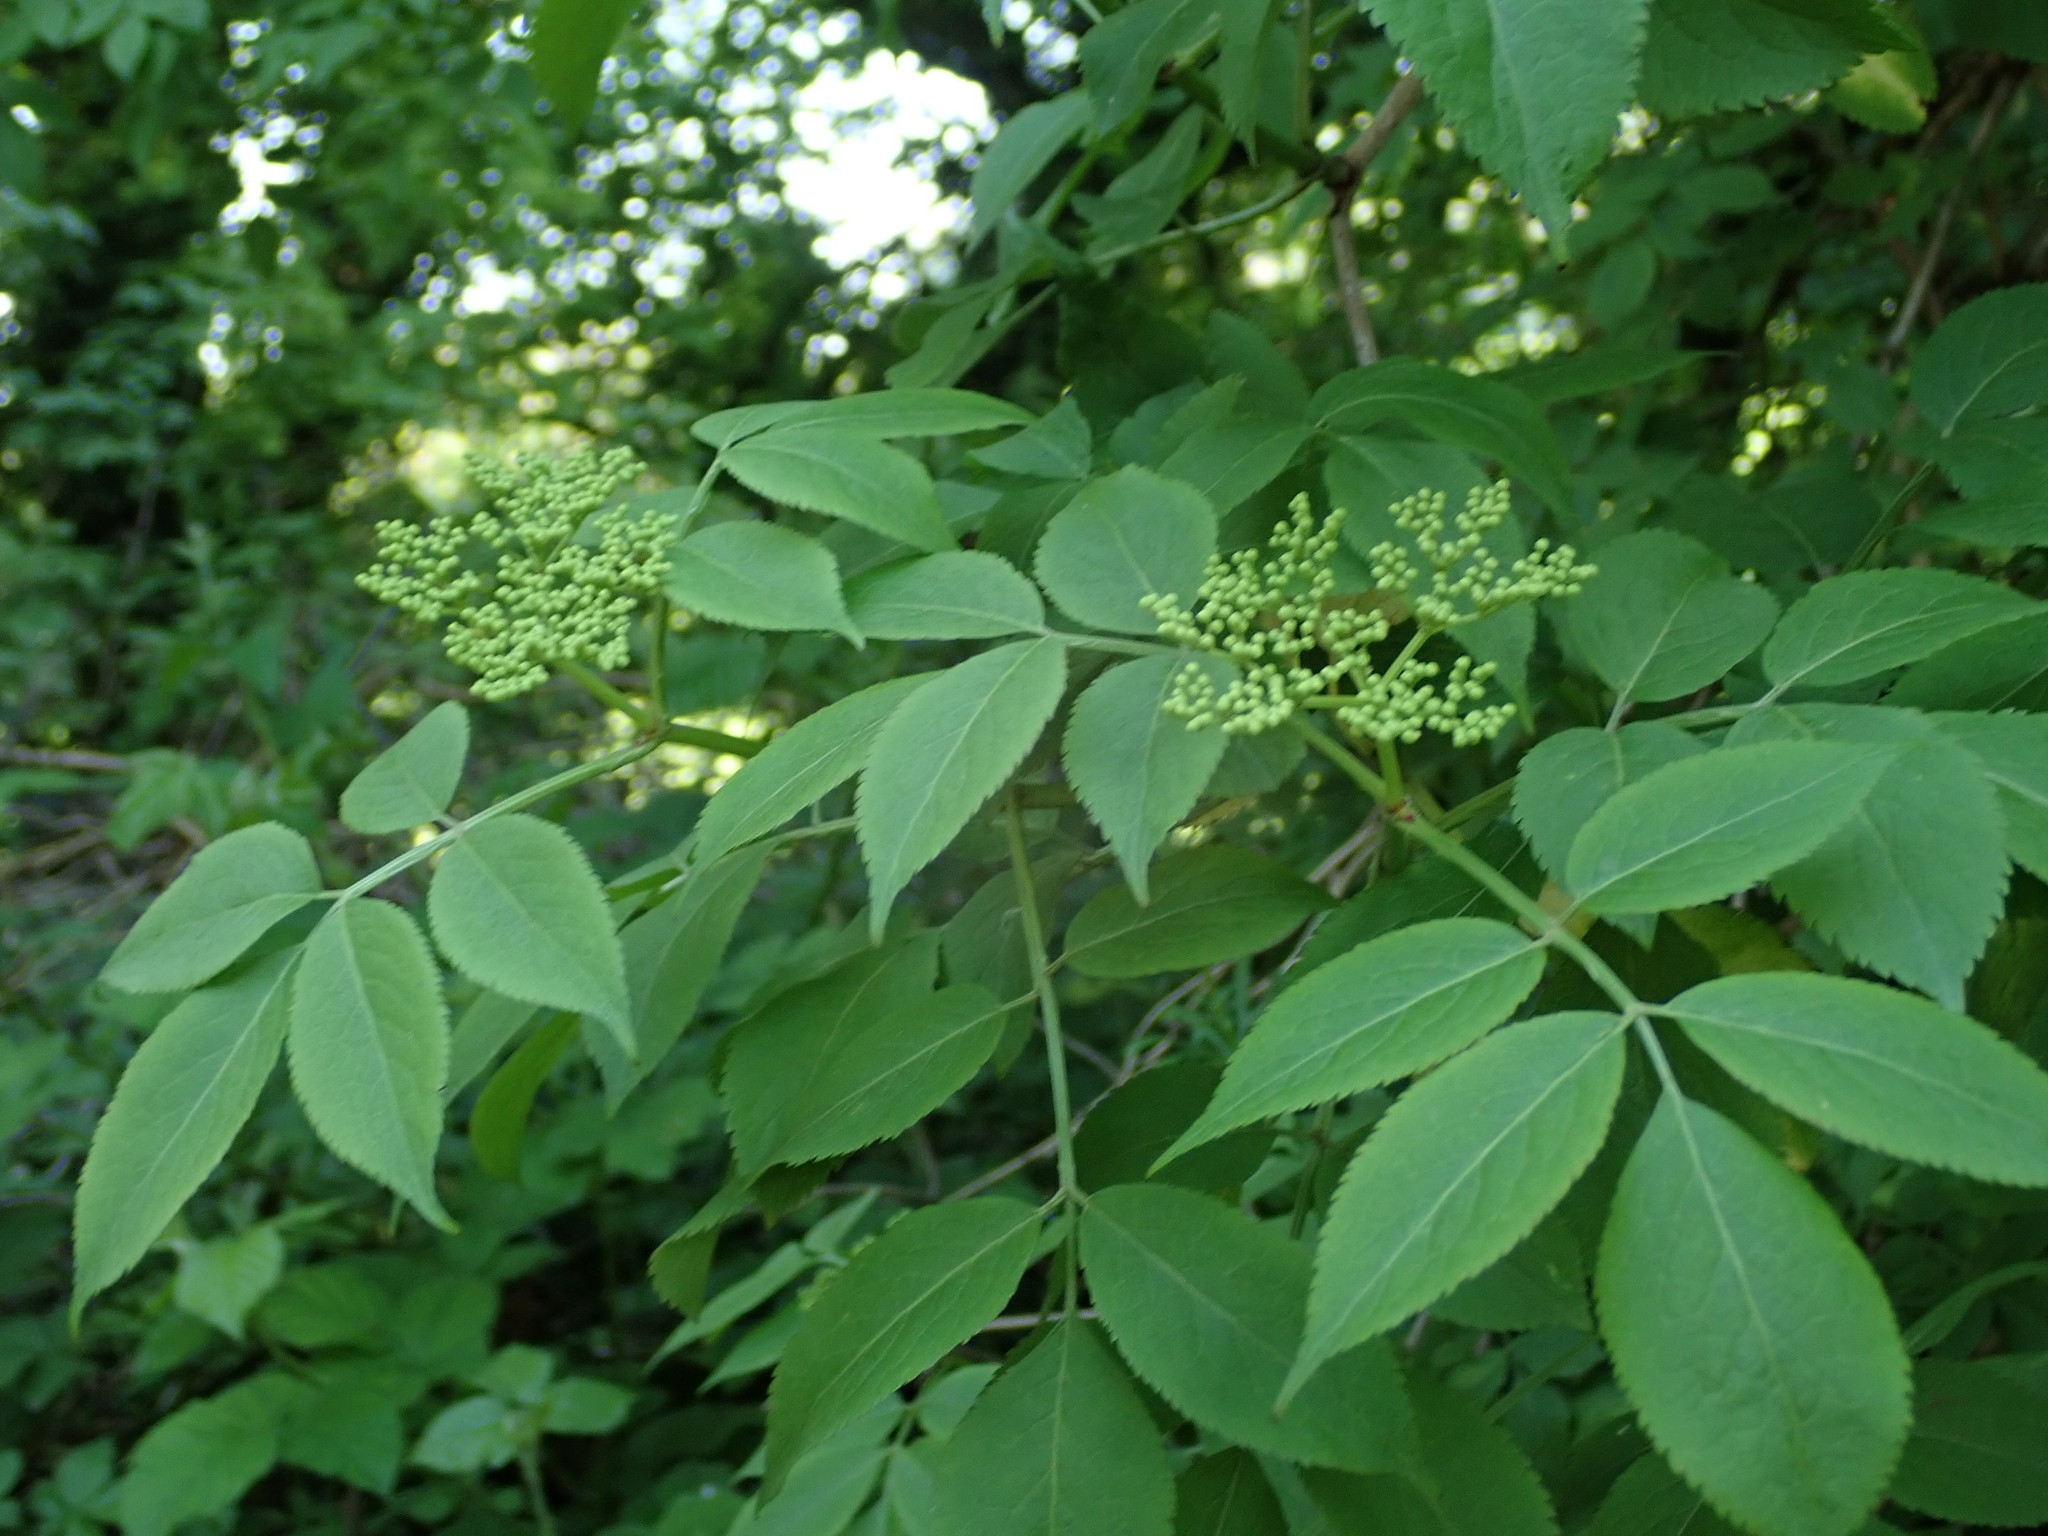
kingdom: Plantae
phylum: Tracheophyta
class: Magnoliopsida
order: Dipsacales
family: Viburnaceae
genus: Sambucus
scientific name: Sambucus nigra
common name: Elder
